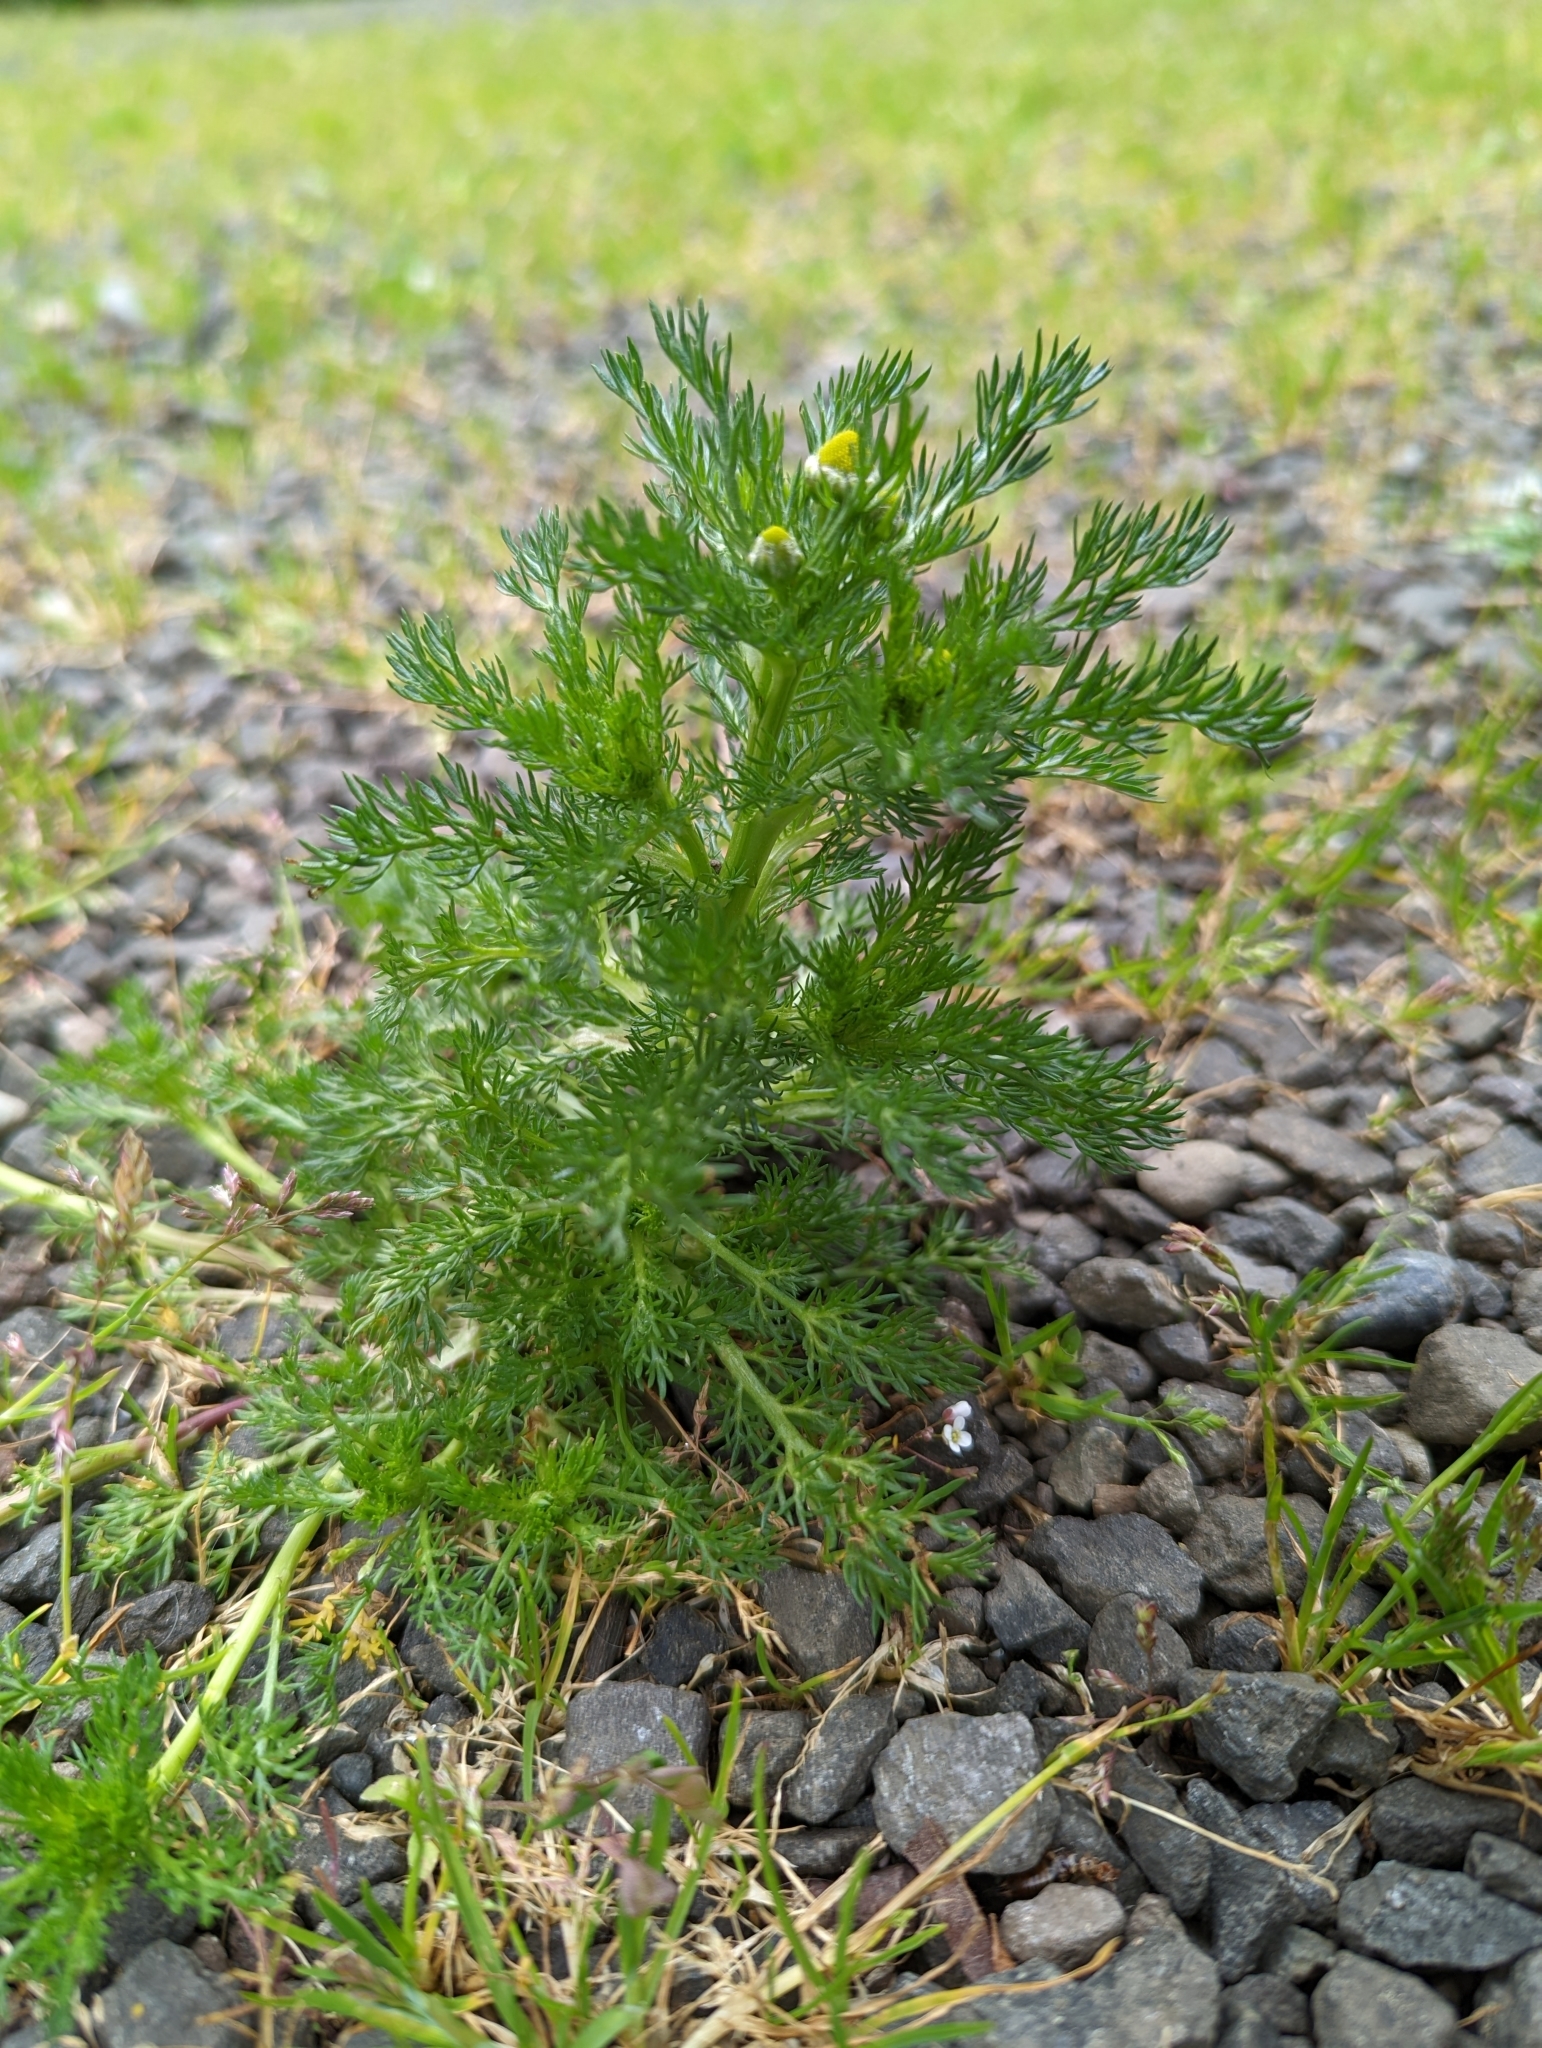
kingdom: Plantae
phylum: Tracheophyta
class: Magnoliopsida
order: Asterales
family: Asteraceae
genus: Matricaria
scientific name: Matricaria discoidea
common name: Disc mayweed
